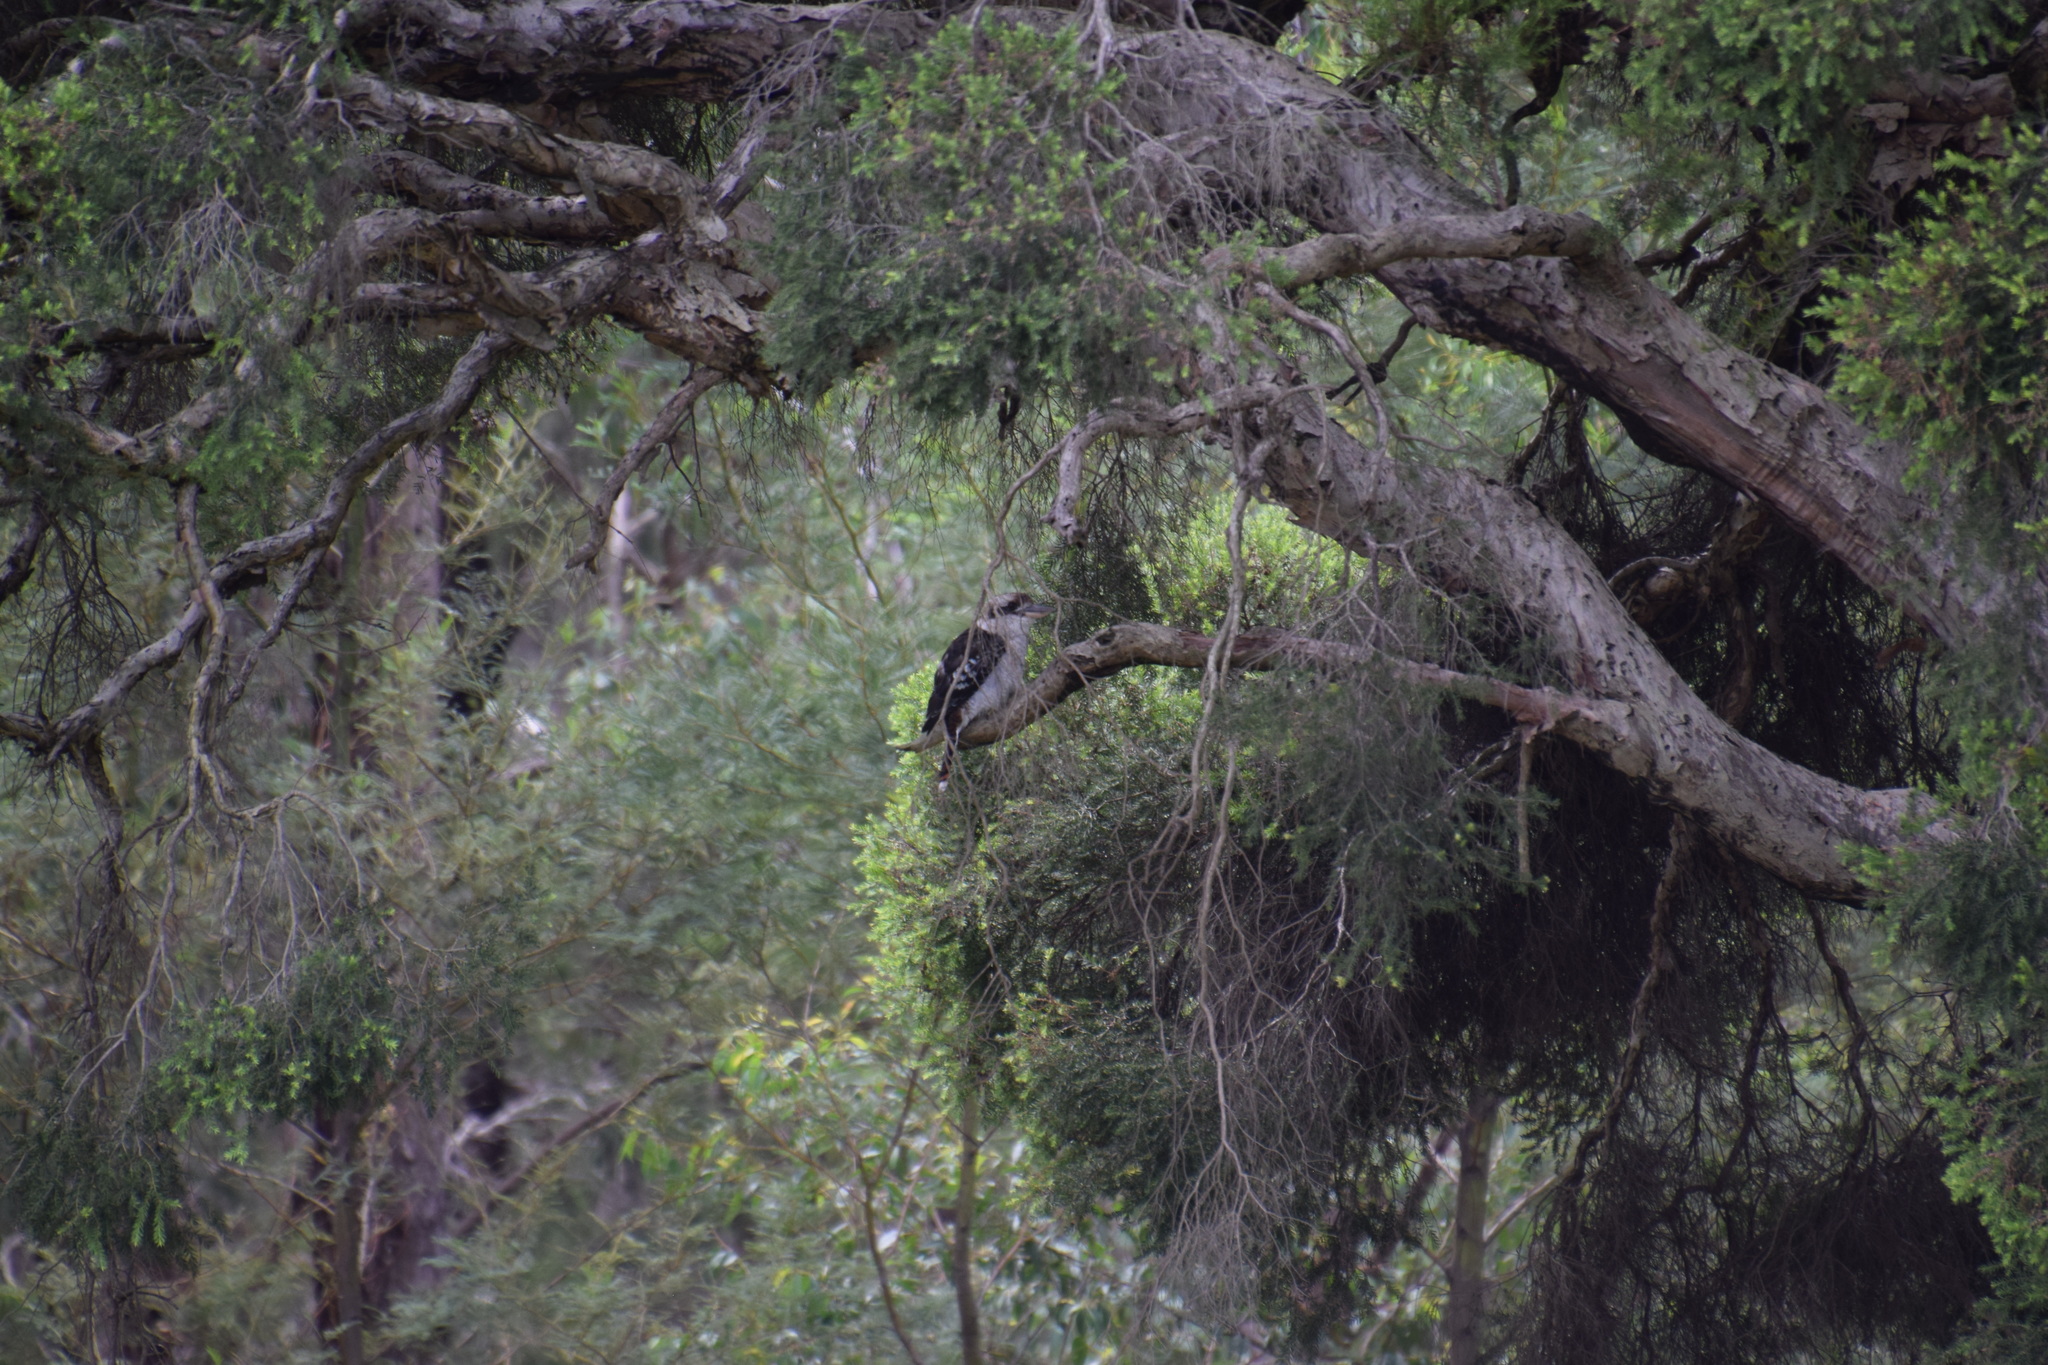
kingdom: Animalia
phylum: Chordata
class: Aves
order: Coraciiformes
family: Alcedinidae
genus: Dacelo
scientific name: Dacelo novaeguineae
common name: Laughing kookaburra
